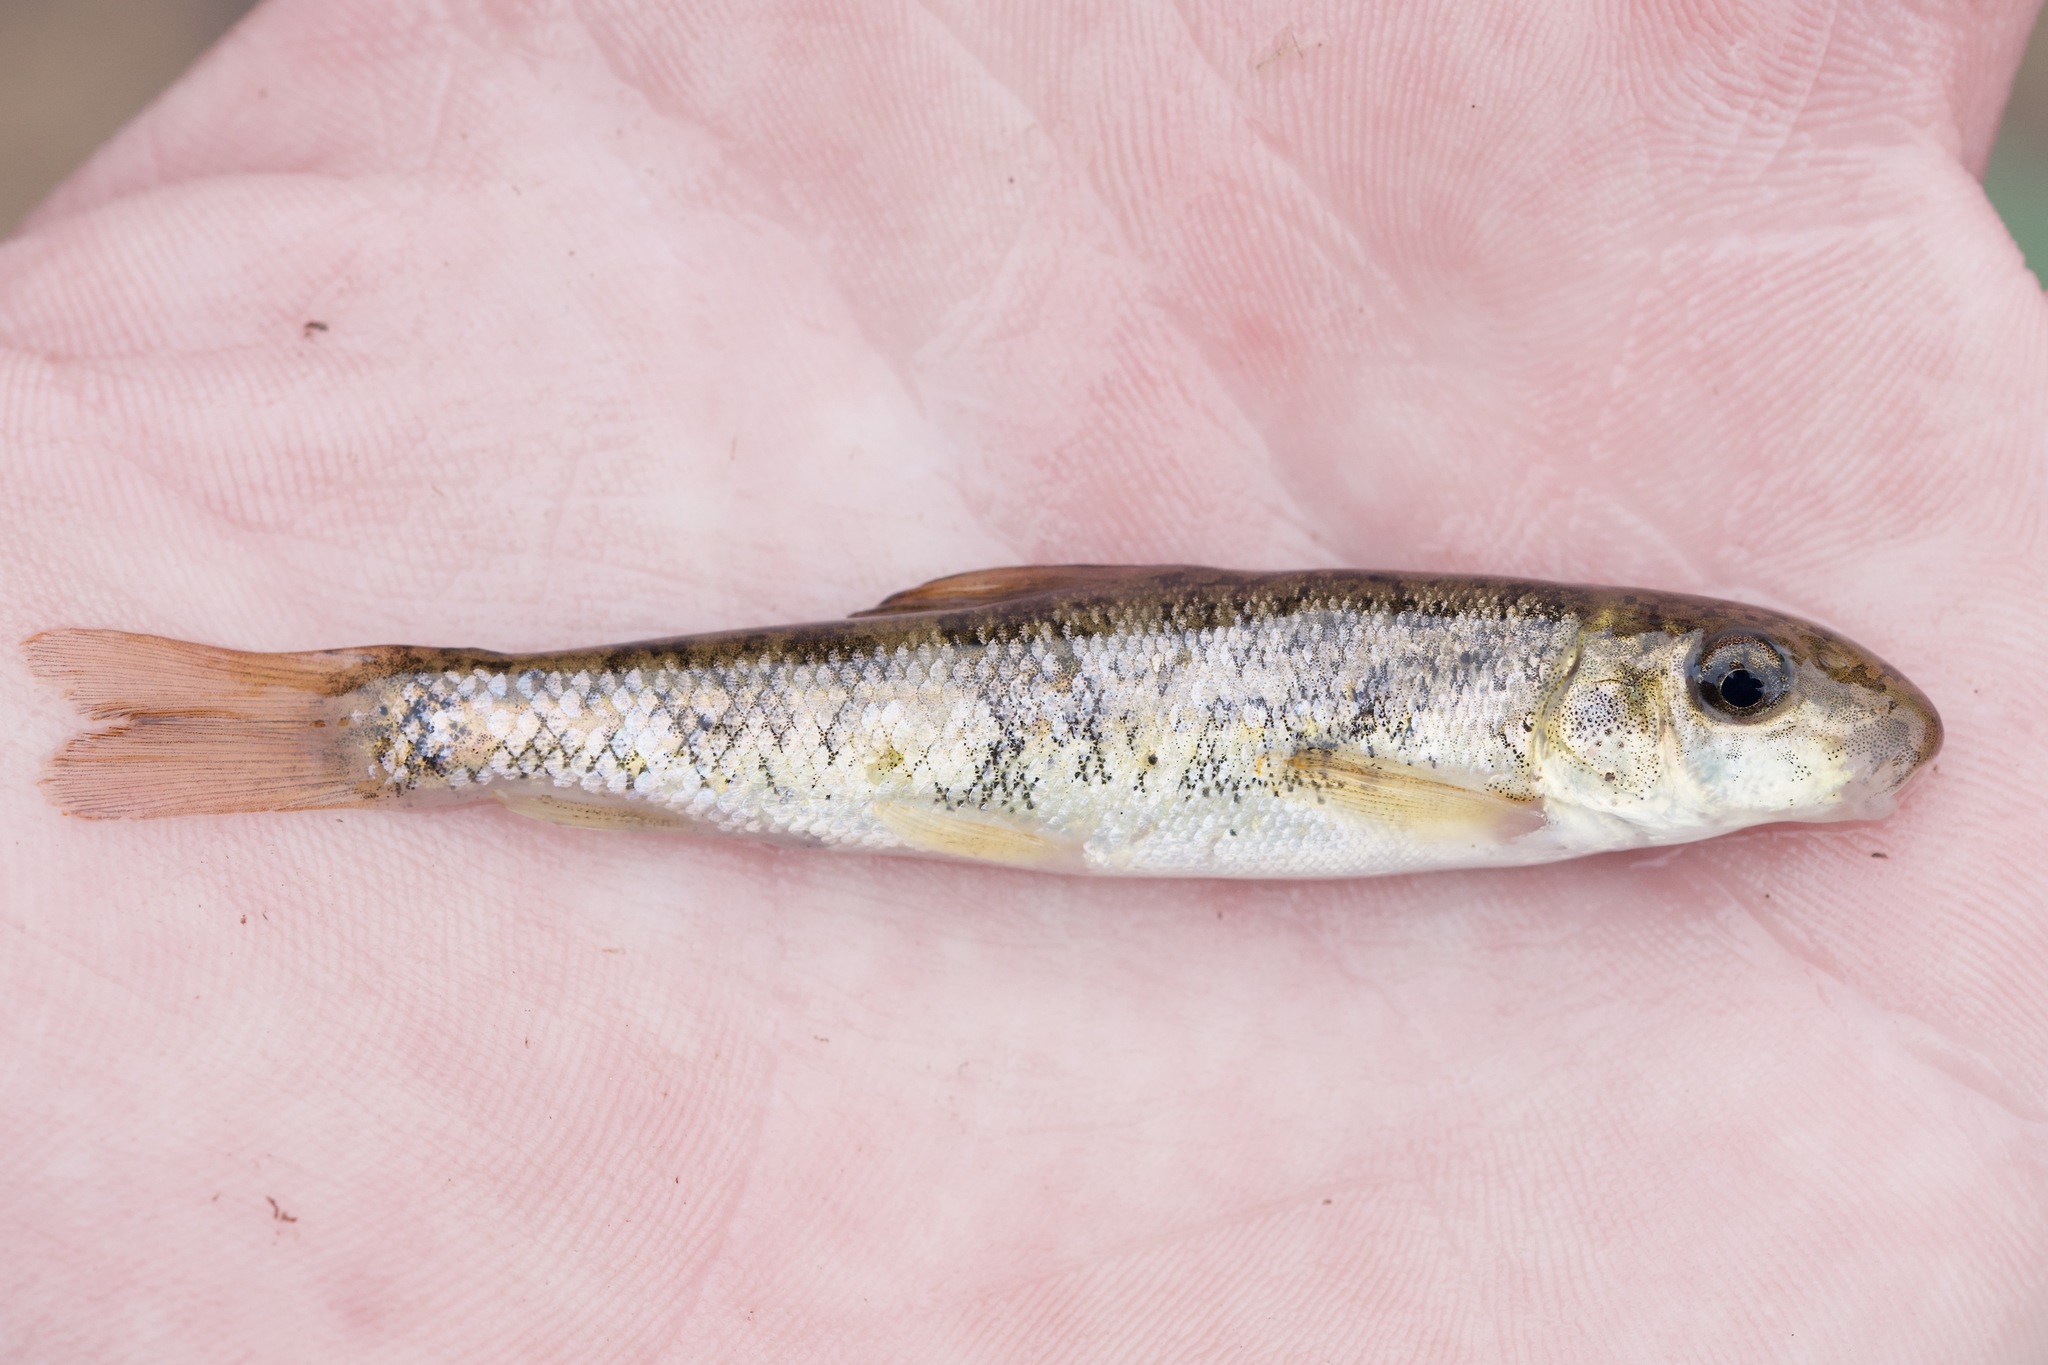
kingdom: Animalia
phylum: Chordata
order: Cypriniformes
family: Catostomidae
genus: Catostomus
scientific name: Catostomus commersonii
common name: White sucker
